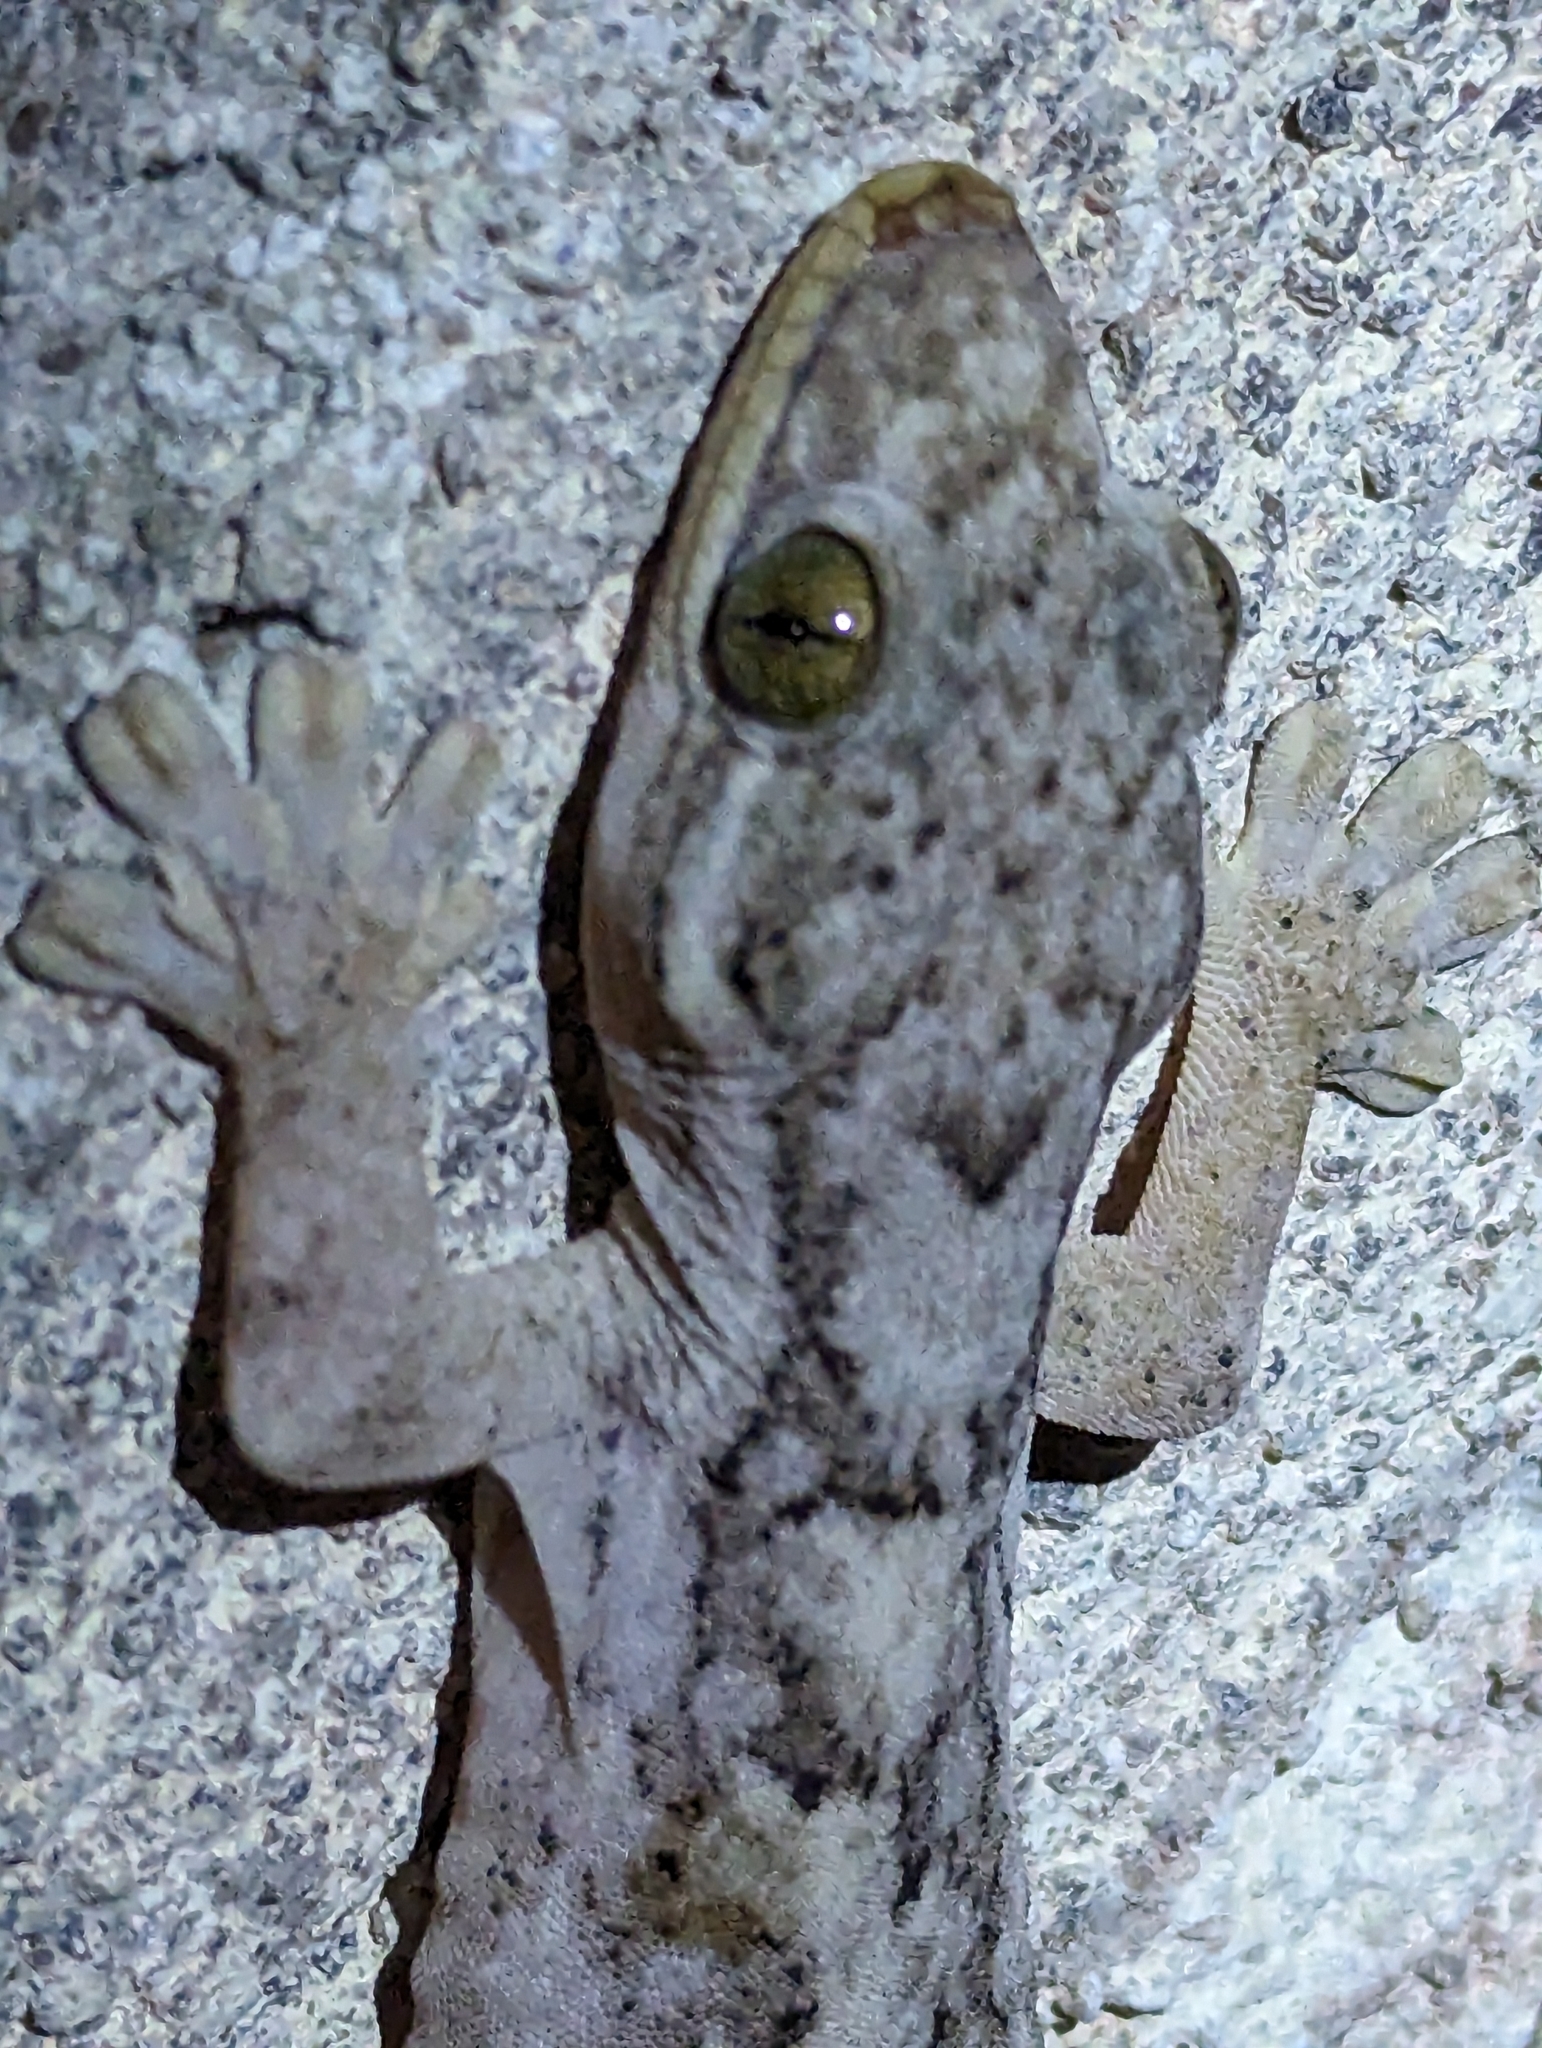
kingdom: Animalia
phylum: Chordata
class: Squamata
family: Phyllodactylidae
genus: Thecadactylus
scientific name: Thecadactylus rapicauda
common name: Turnip-tailed gecko
